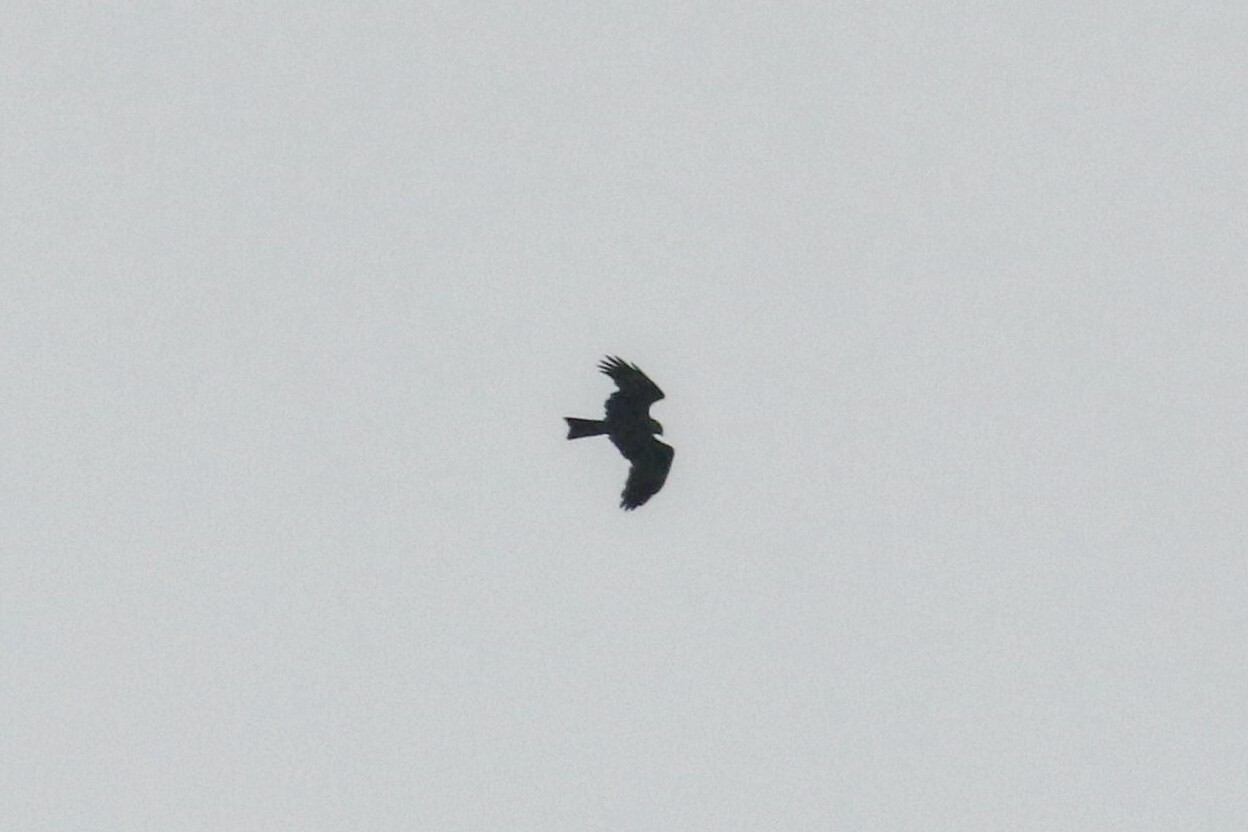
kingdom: Animalia
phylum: Chordata
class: Aves
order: Accipitriformes
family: Accipitridae
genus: Milvus
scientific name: Milvus migrans
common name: Black kite
